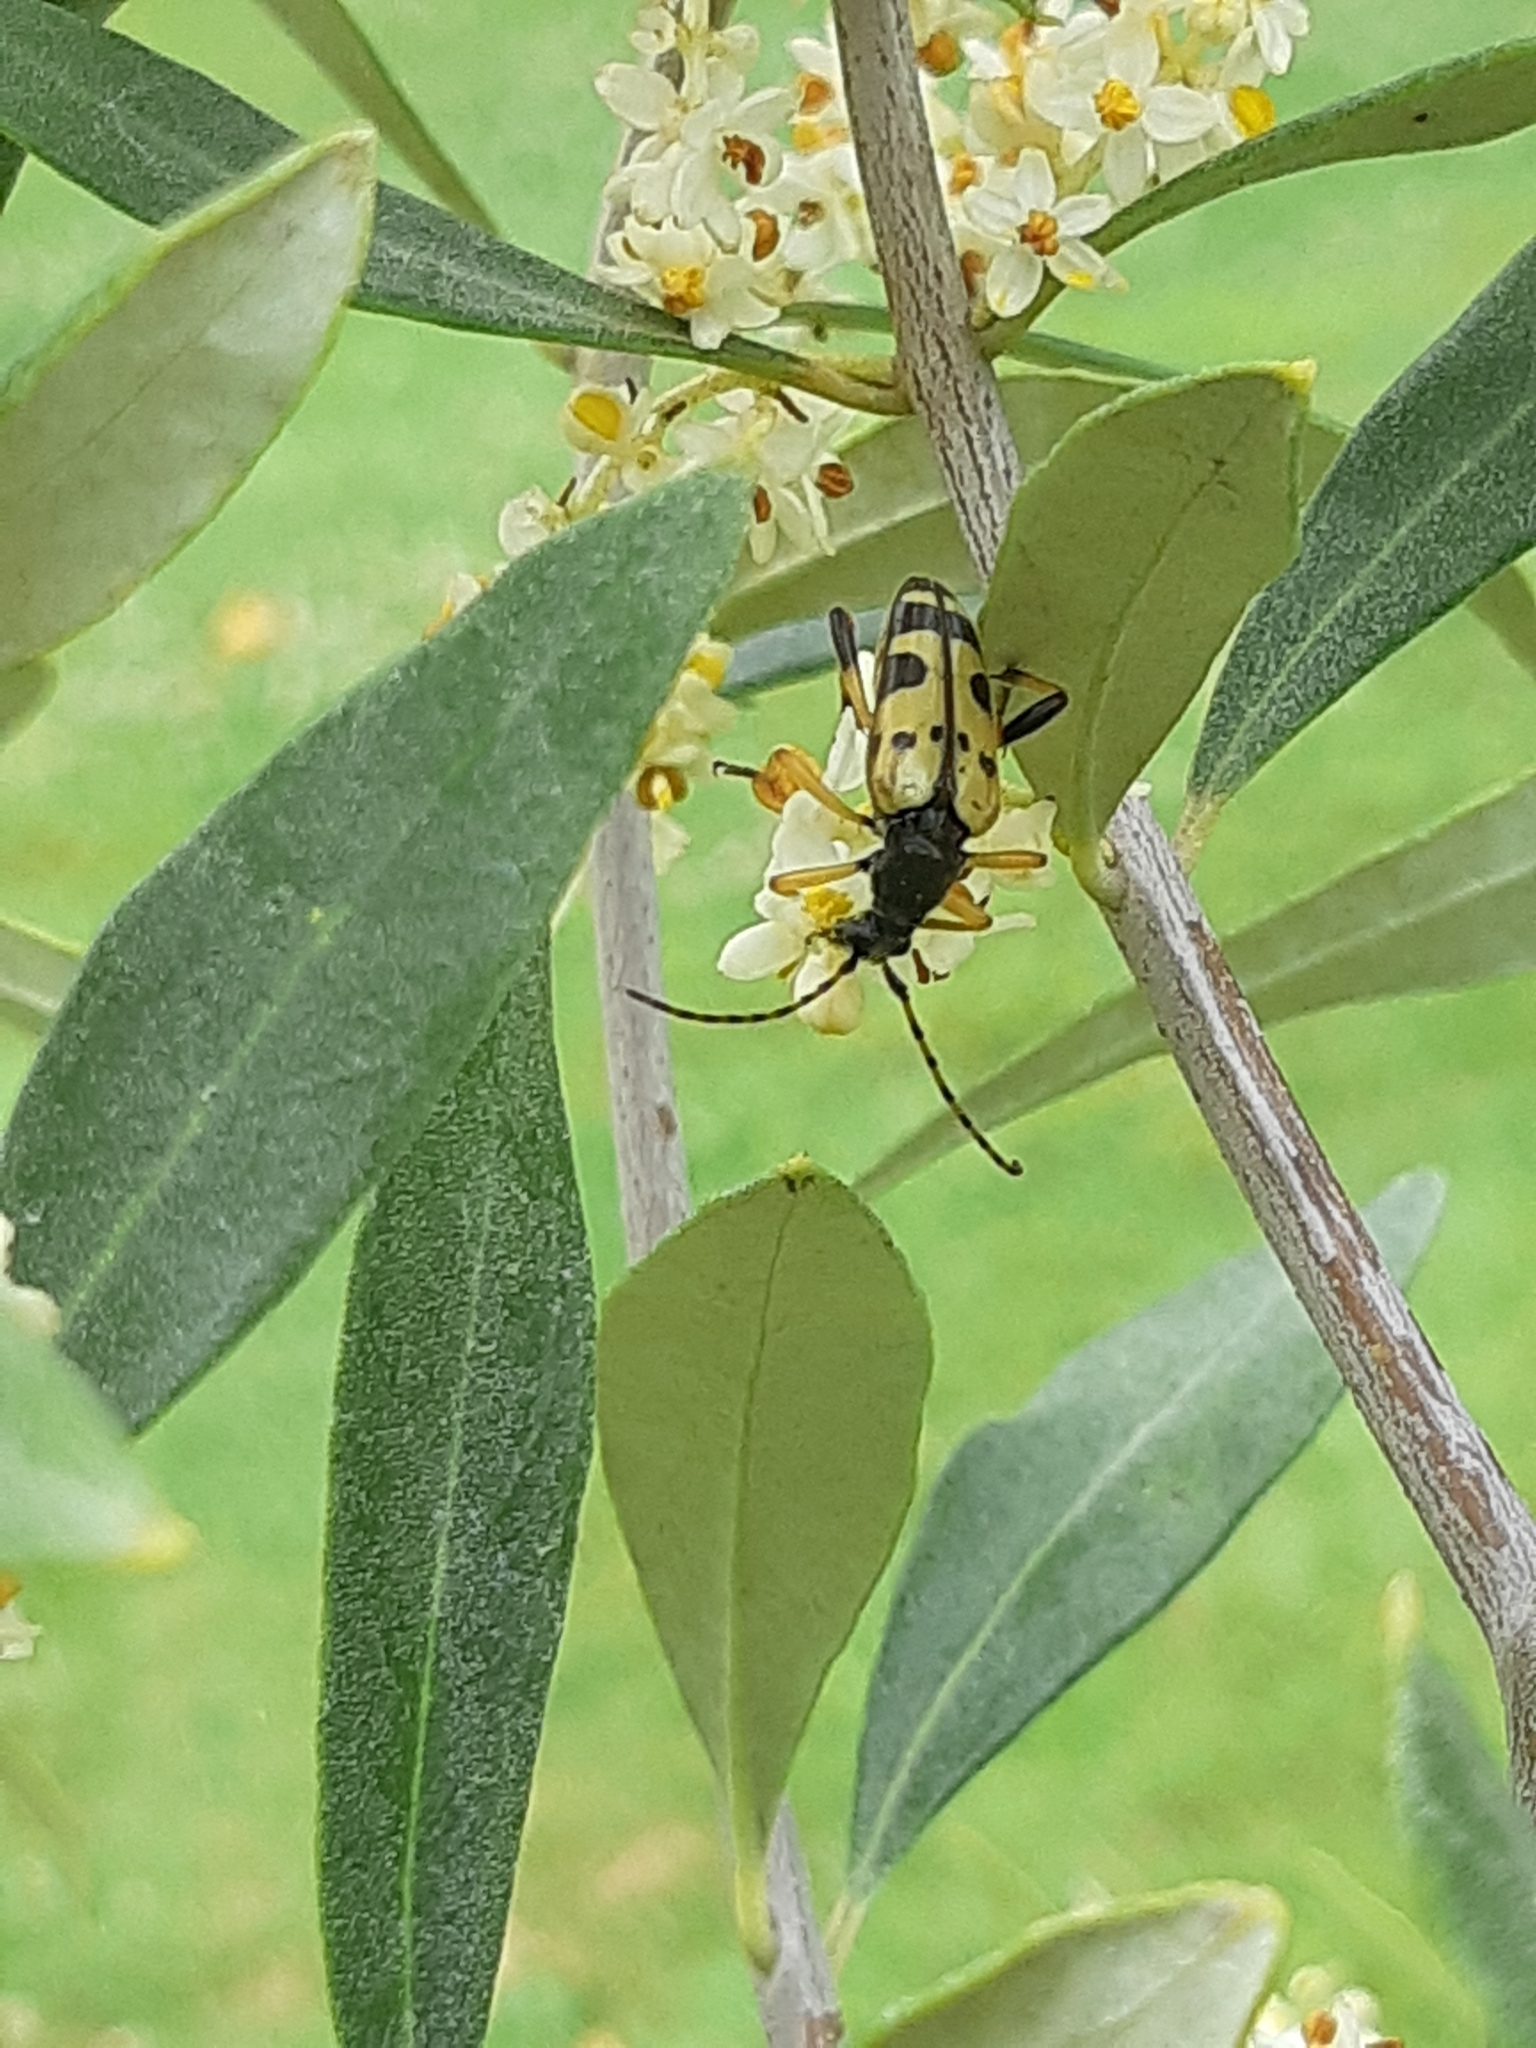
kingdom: Animalia
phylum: Arthropoda
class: Insecta
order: Coleoptera
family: Cerambycidae
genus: Rutpela
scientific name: Rutpela maculata
